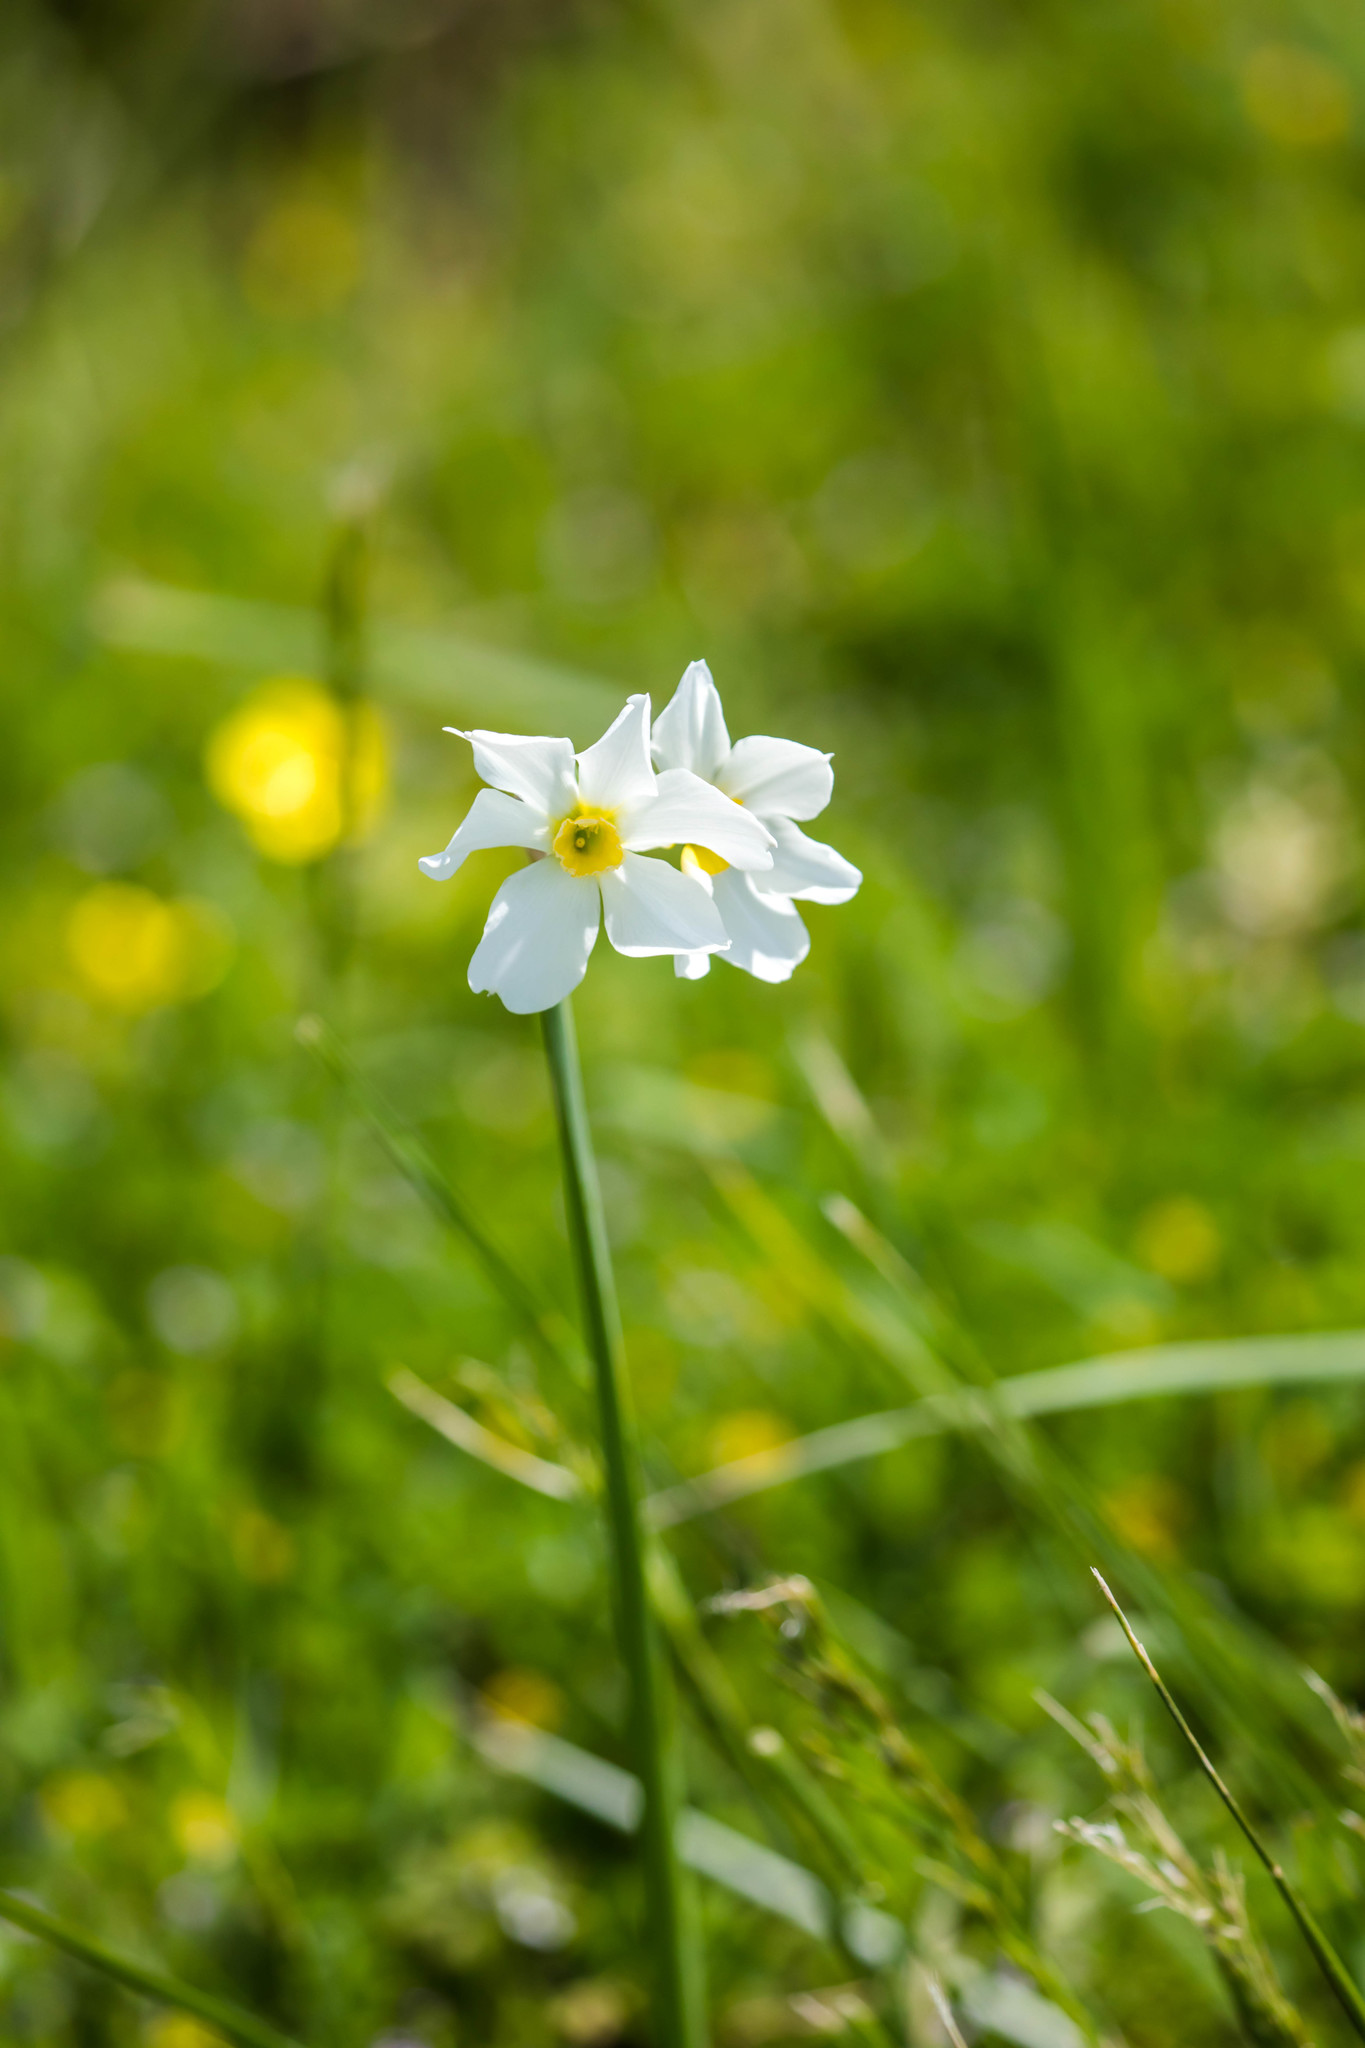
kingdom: Plantae
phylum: Tracheophyta
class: Liliopsida
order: Asparagales
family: Amaryllidaceae
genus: Narcissus
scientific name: Narcissus medioluteus
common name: Primrose-peerless
